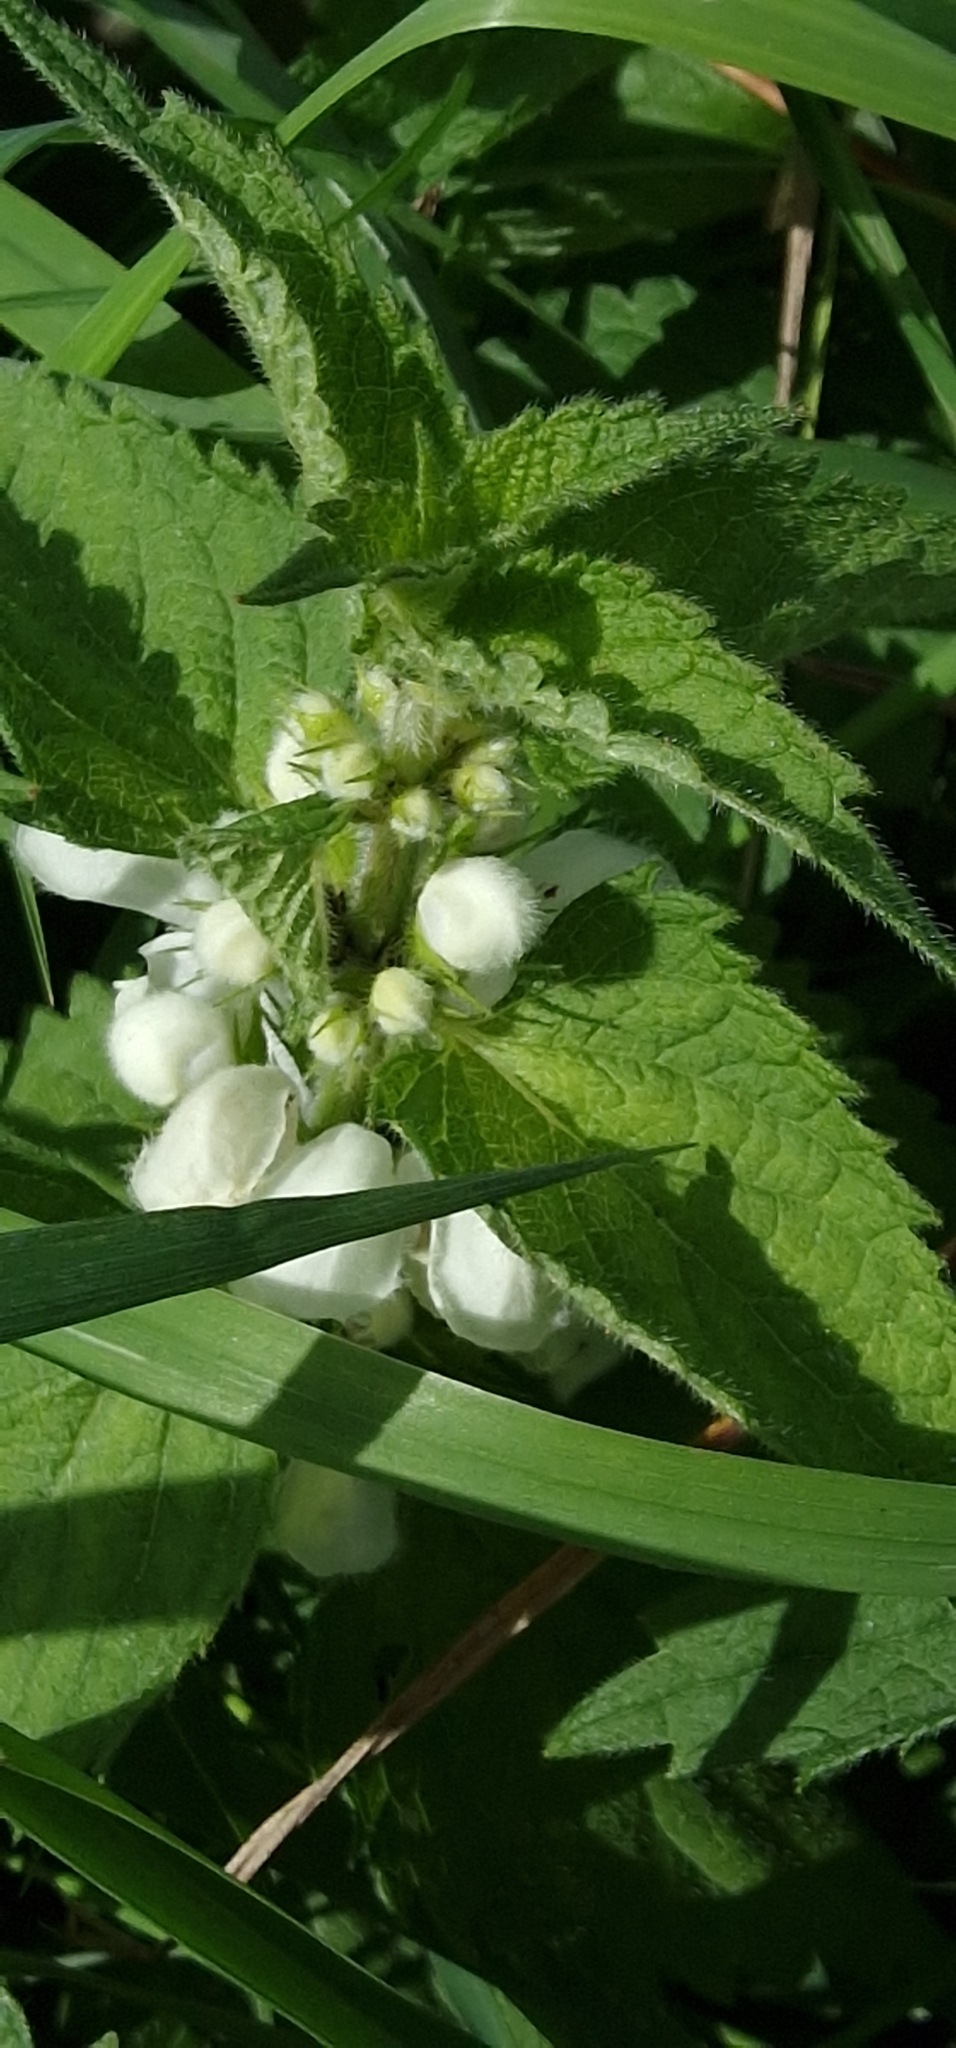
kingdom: Plantae
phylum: Tracheophyta
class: Magnoliopsida
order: Lamiales
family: Lamiaceae
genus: Lamium
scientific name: Lamium album
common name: White dead-nettle
